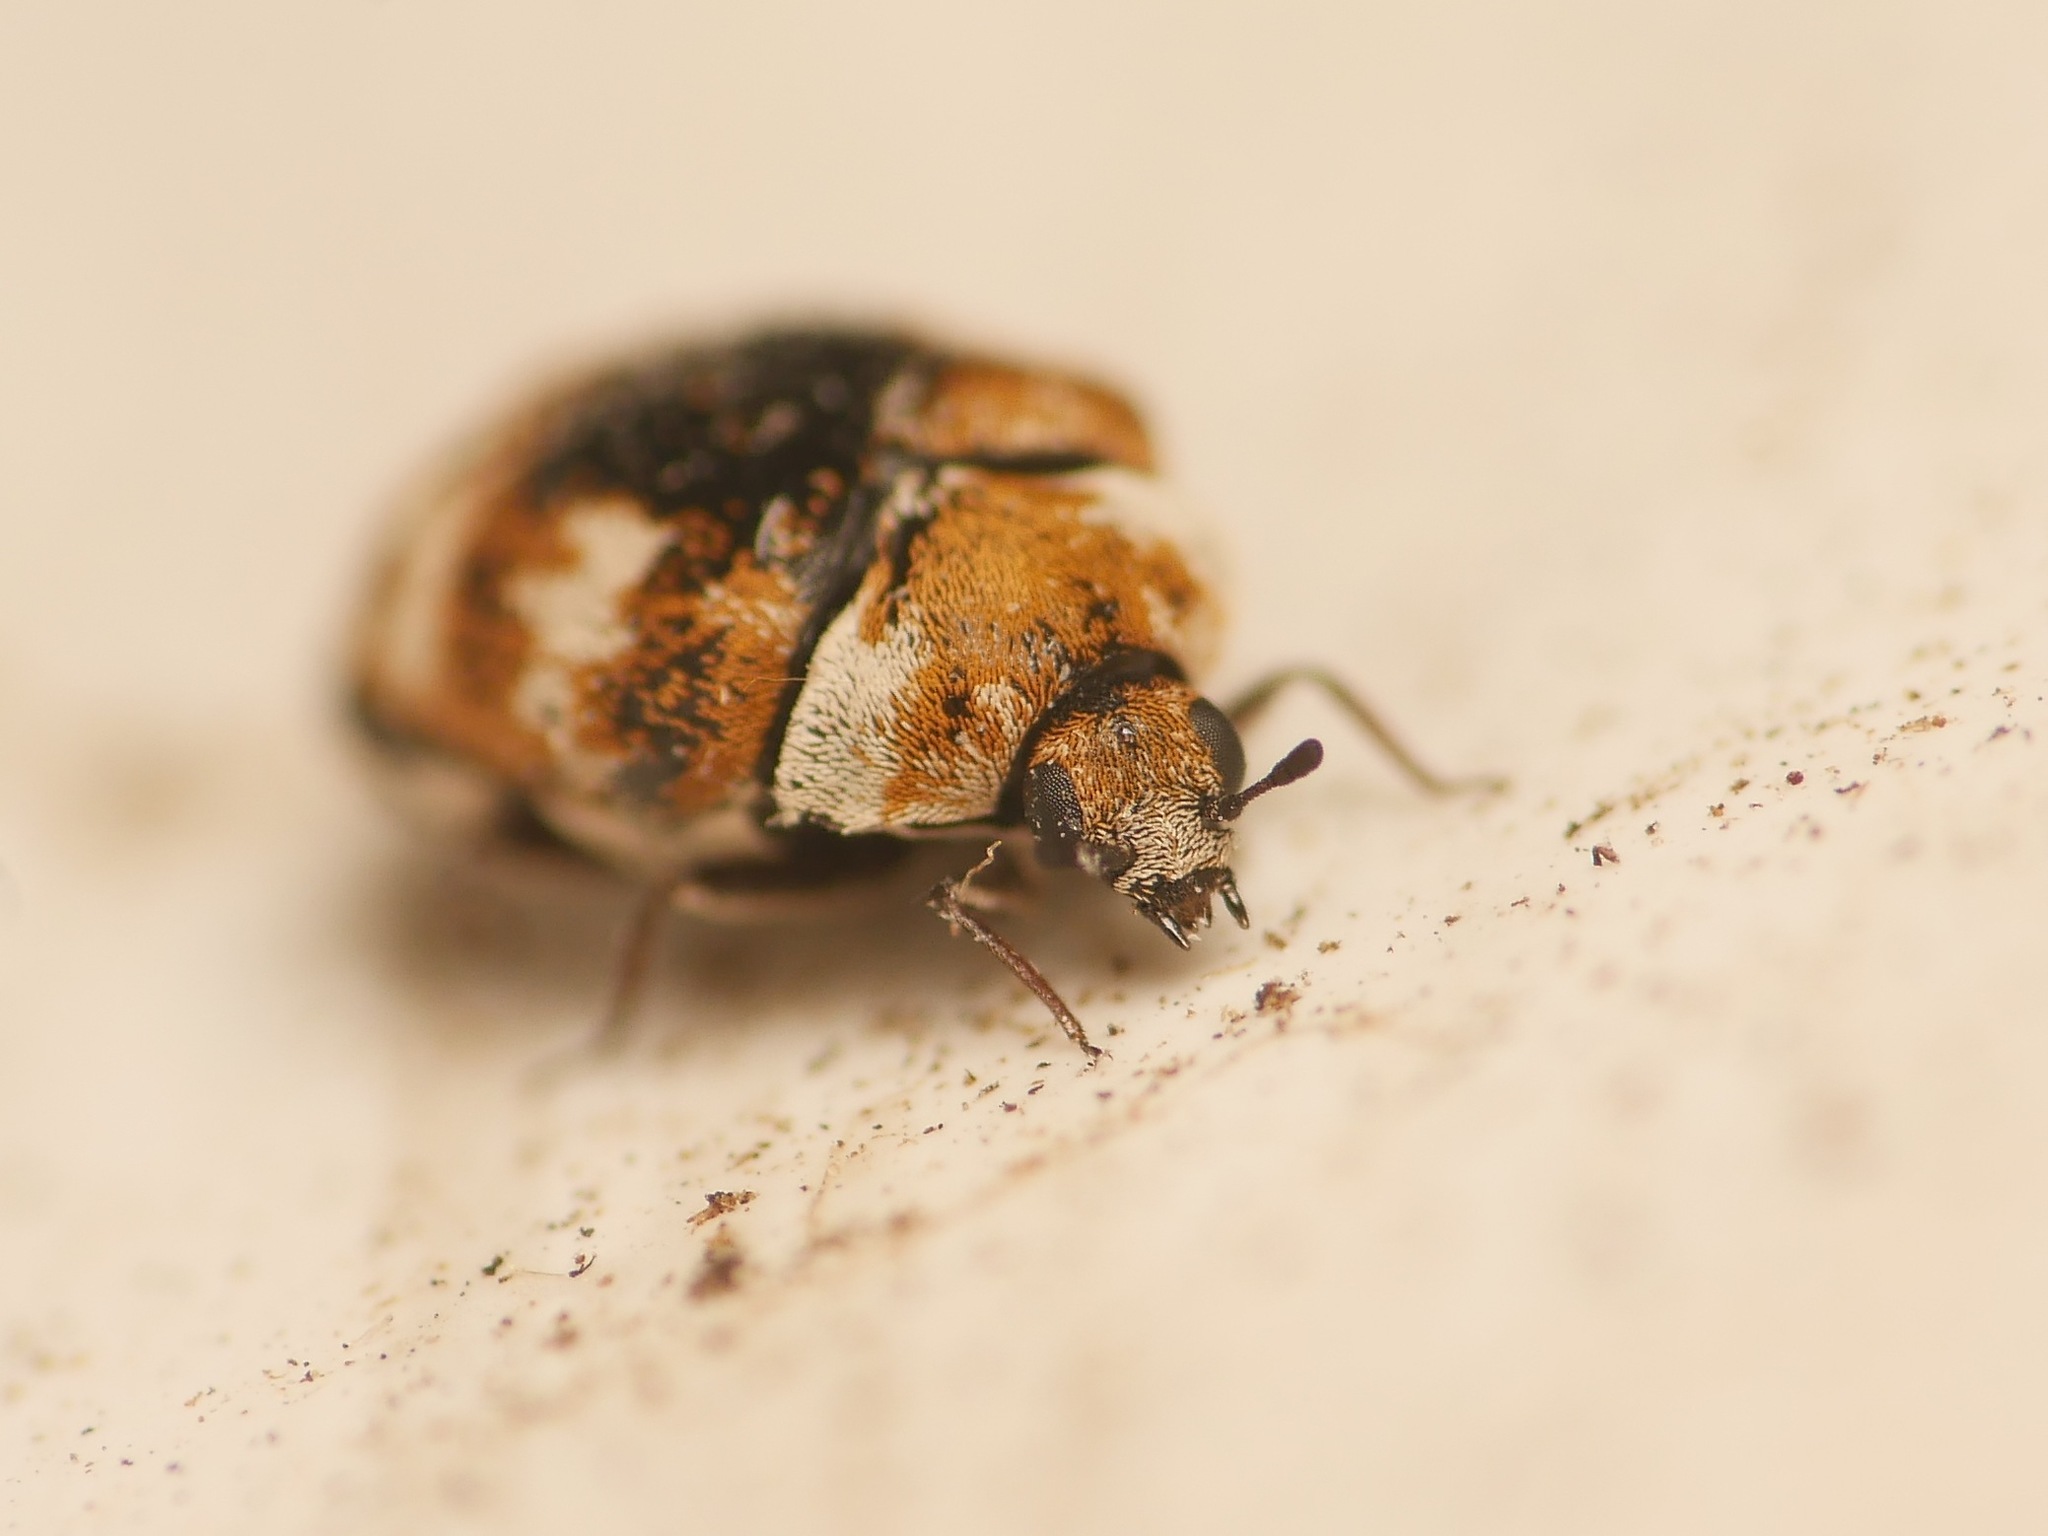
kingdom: Animalia
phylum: Arthropoda
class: Insecta
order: Coleoptera
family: Dermestidae
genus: Anthrenus
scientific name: Anthrenus verbasci
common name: Varied carpet beetle
